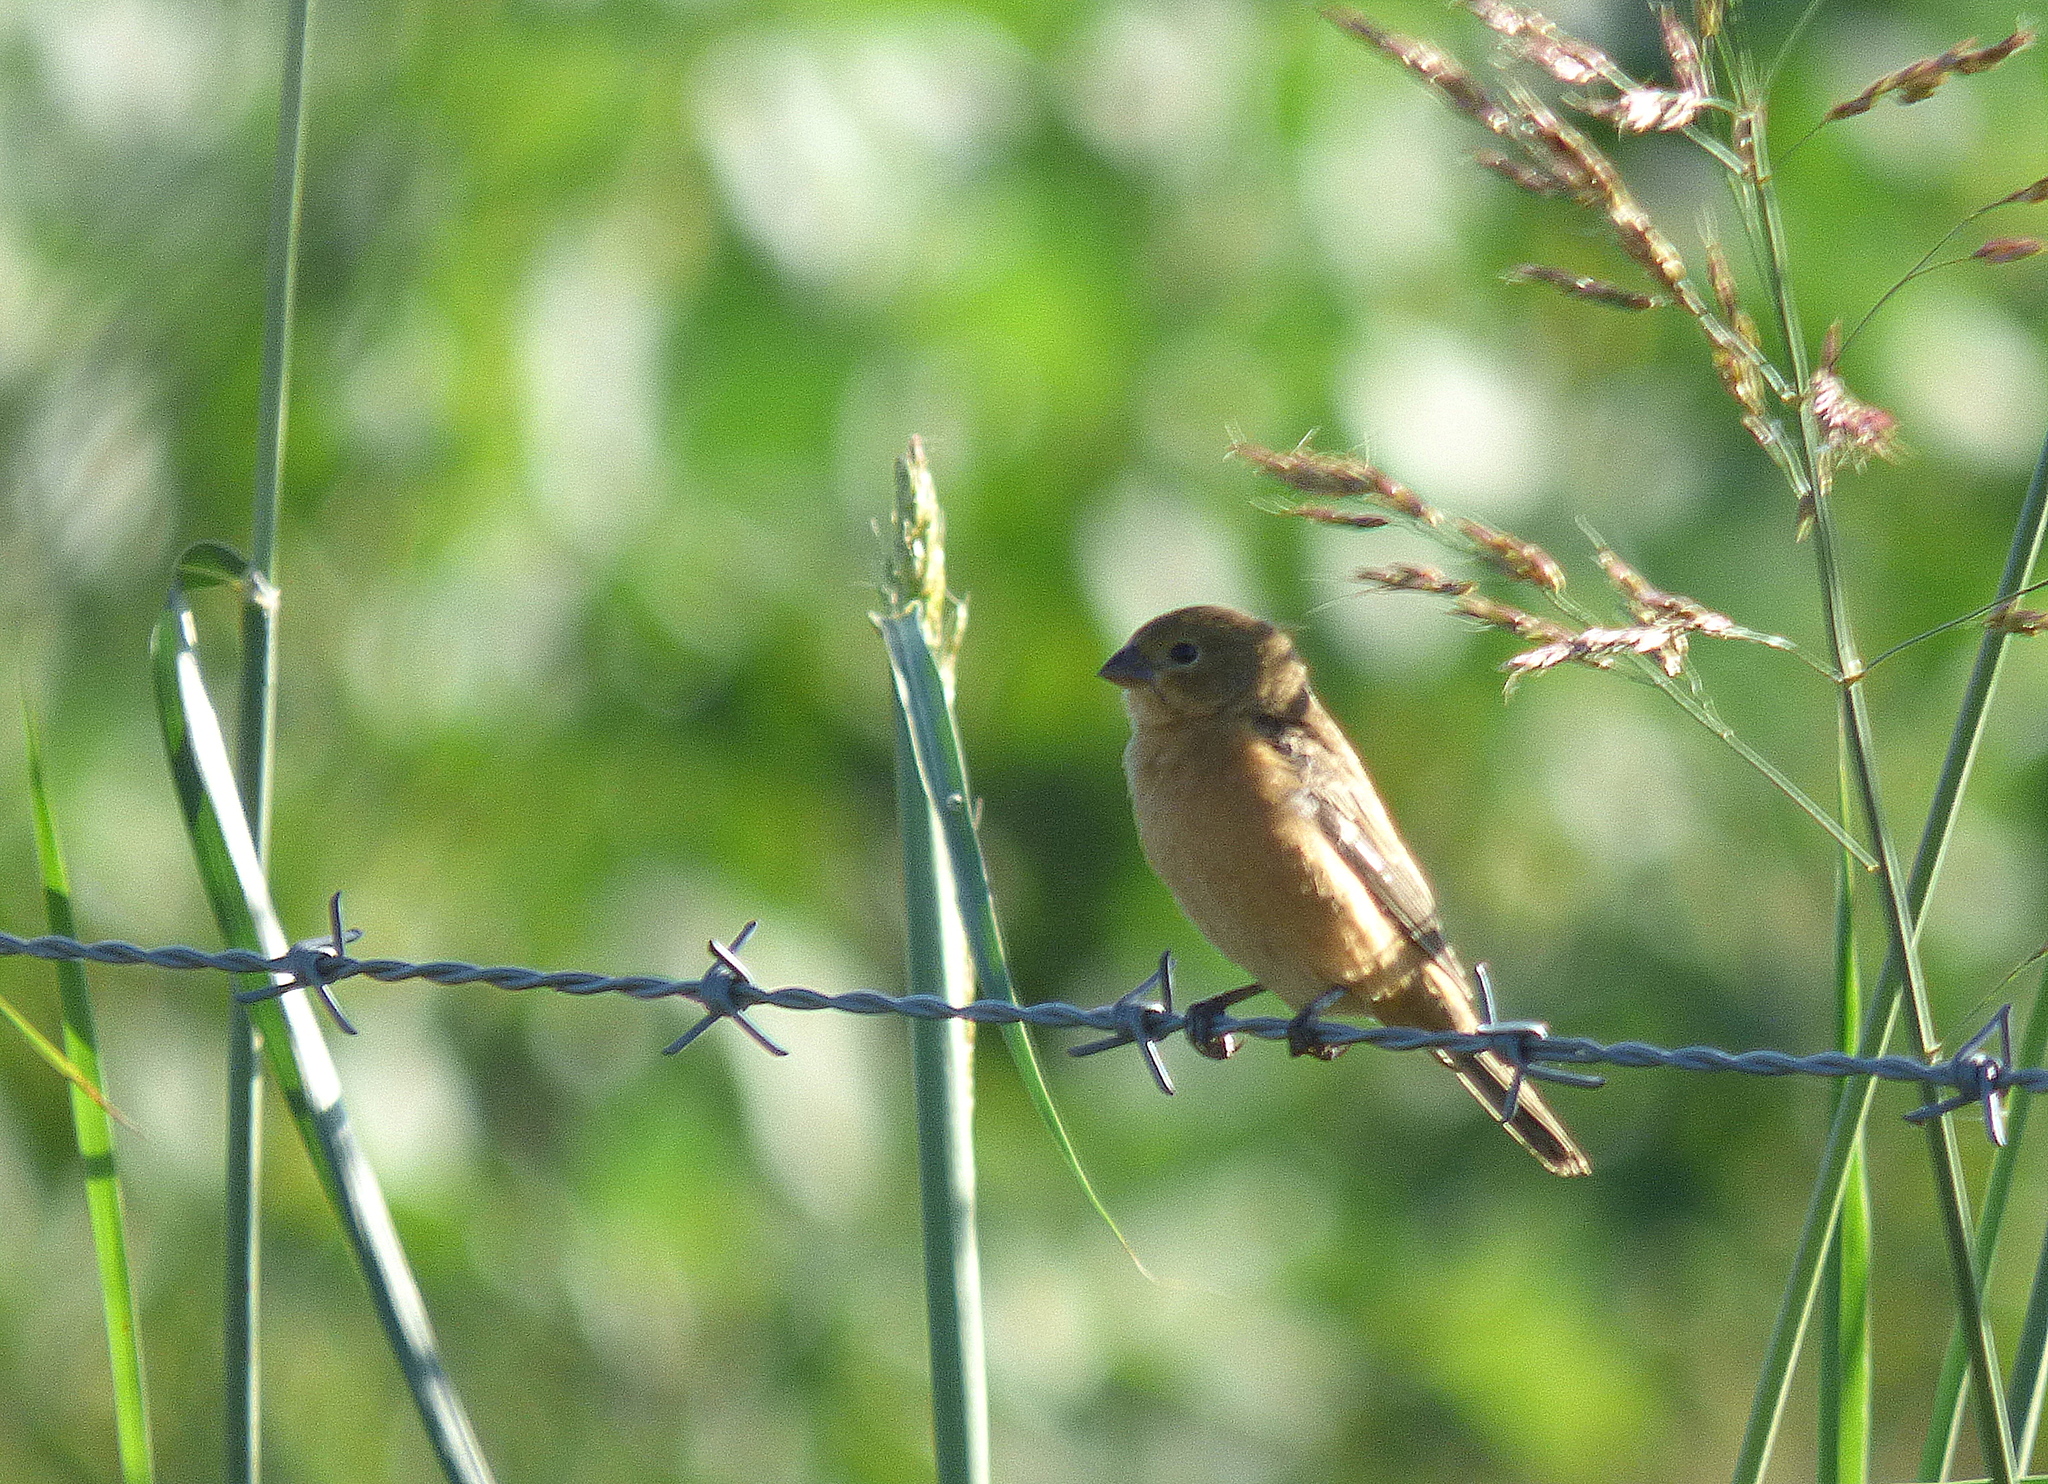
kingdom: Animalia
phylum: Chordata
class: Aves
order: Passeriformes
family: Thraupidae
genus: Sporophila
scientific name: Sporophila ruficollis
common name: Dark-throated seedeater
